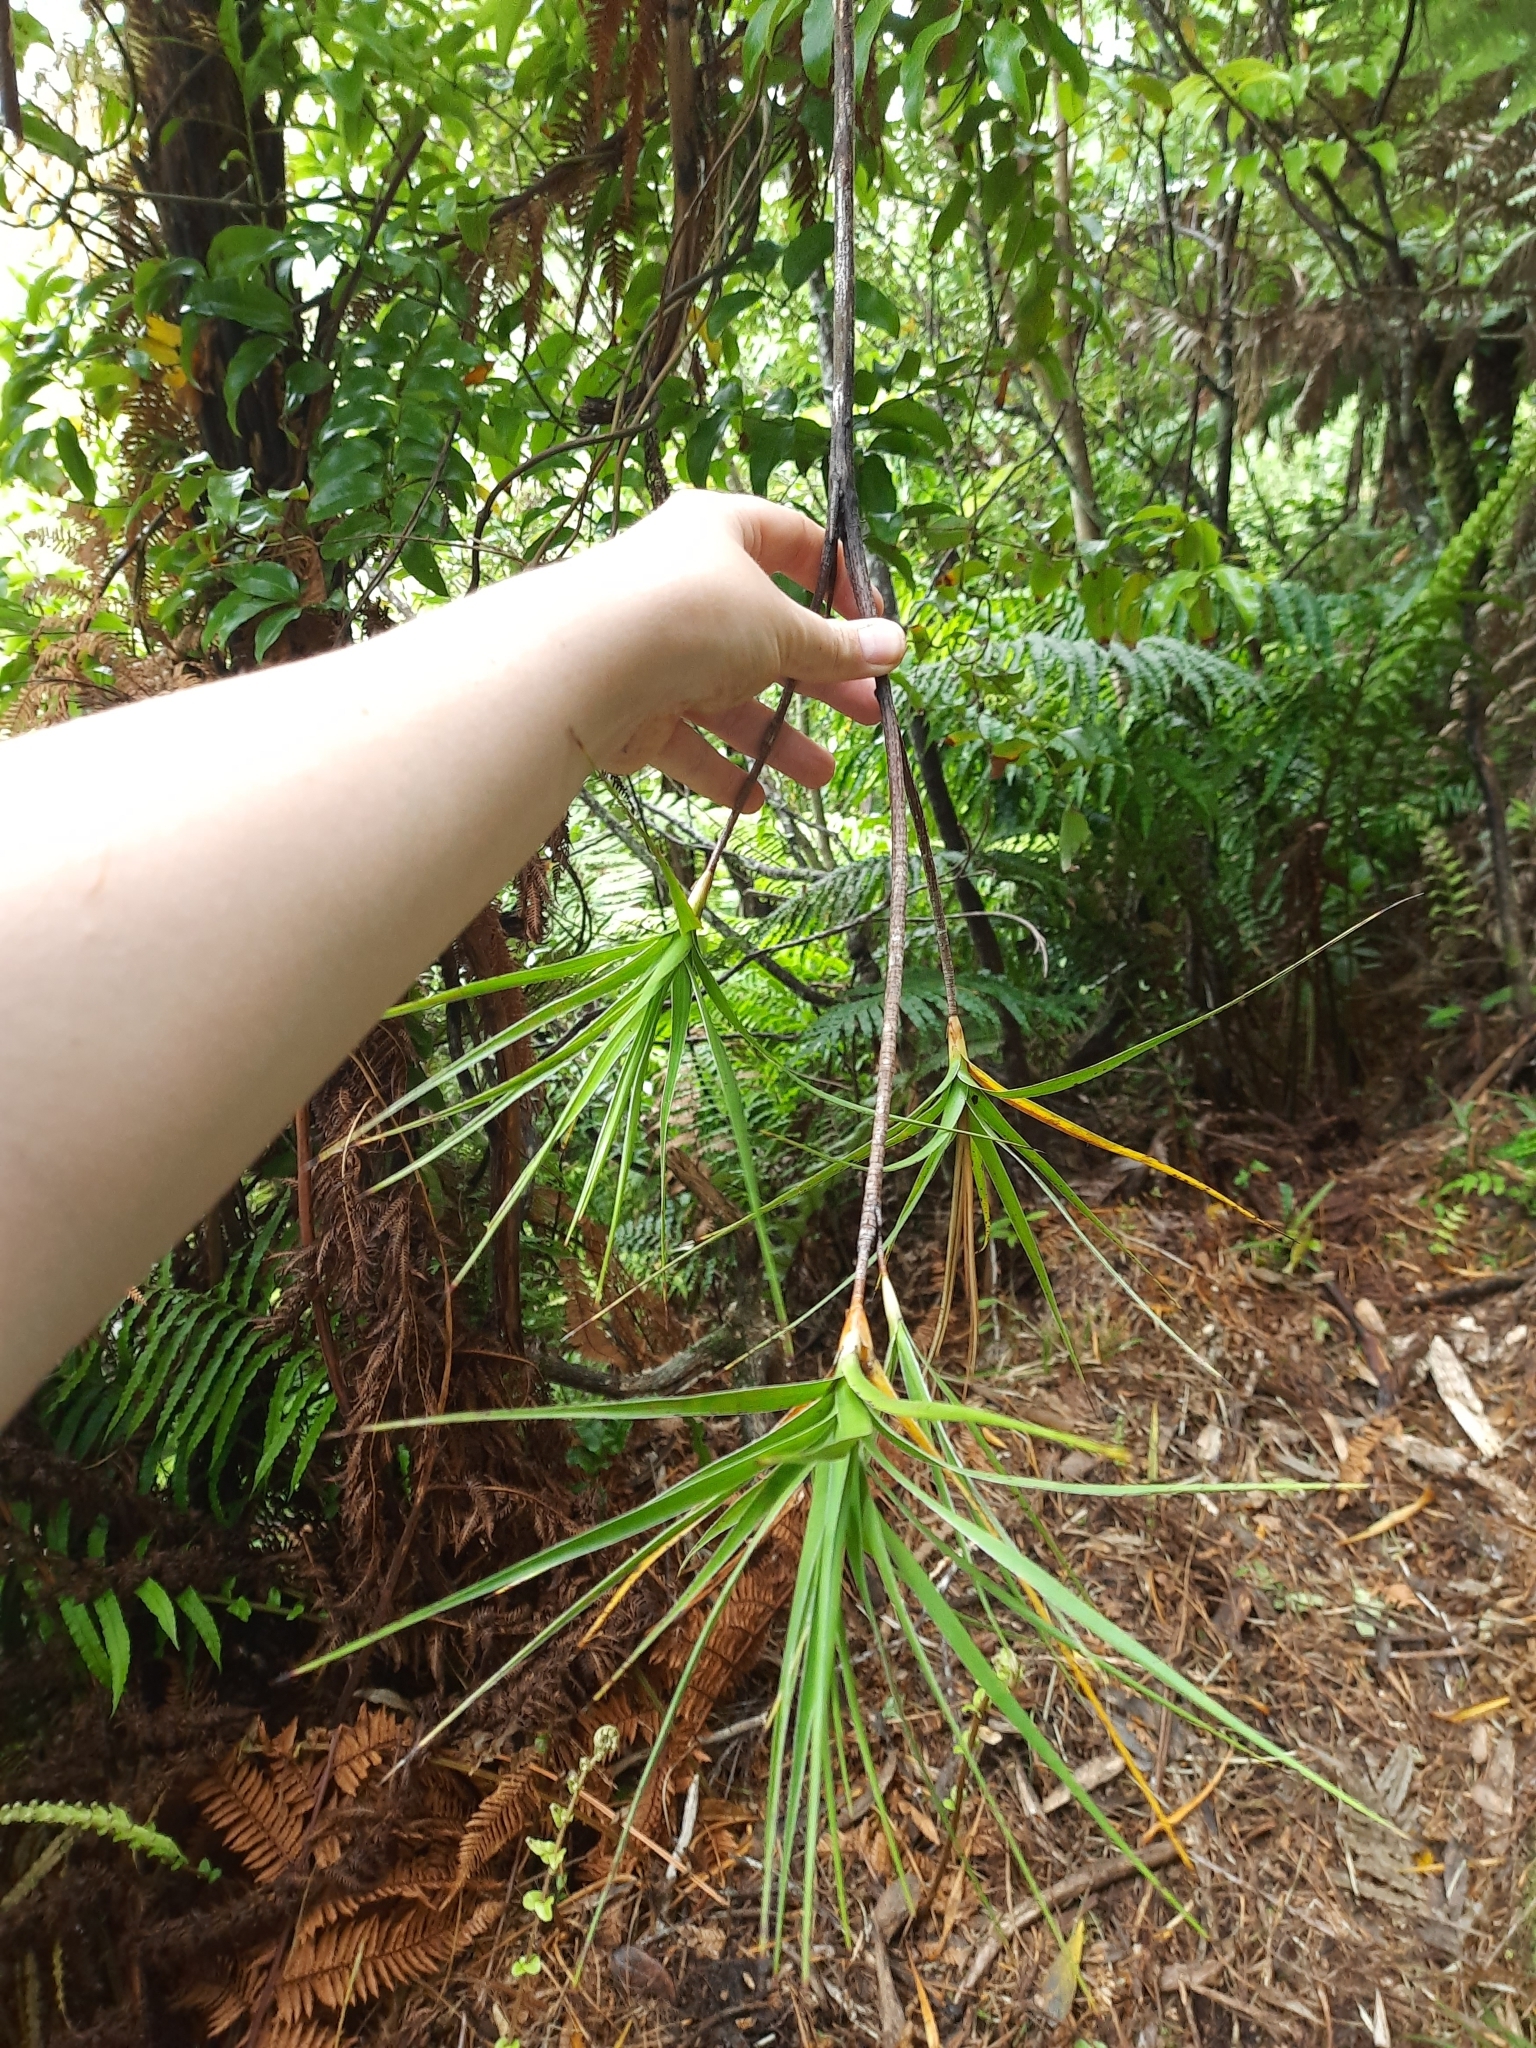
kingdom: Plantae
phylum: Tracheophyta
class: Magnoliopsida
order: Ericales
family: Ericaceae
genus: Dracophyllum
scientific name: Dracophyllum arboreum
